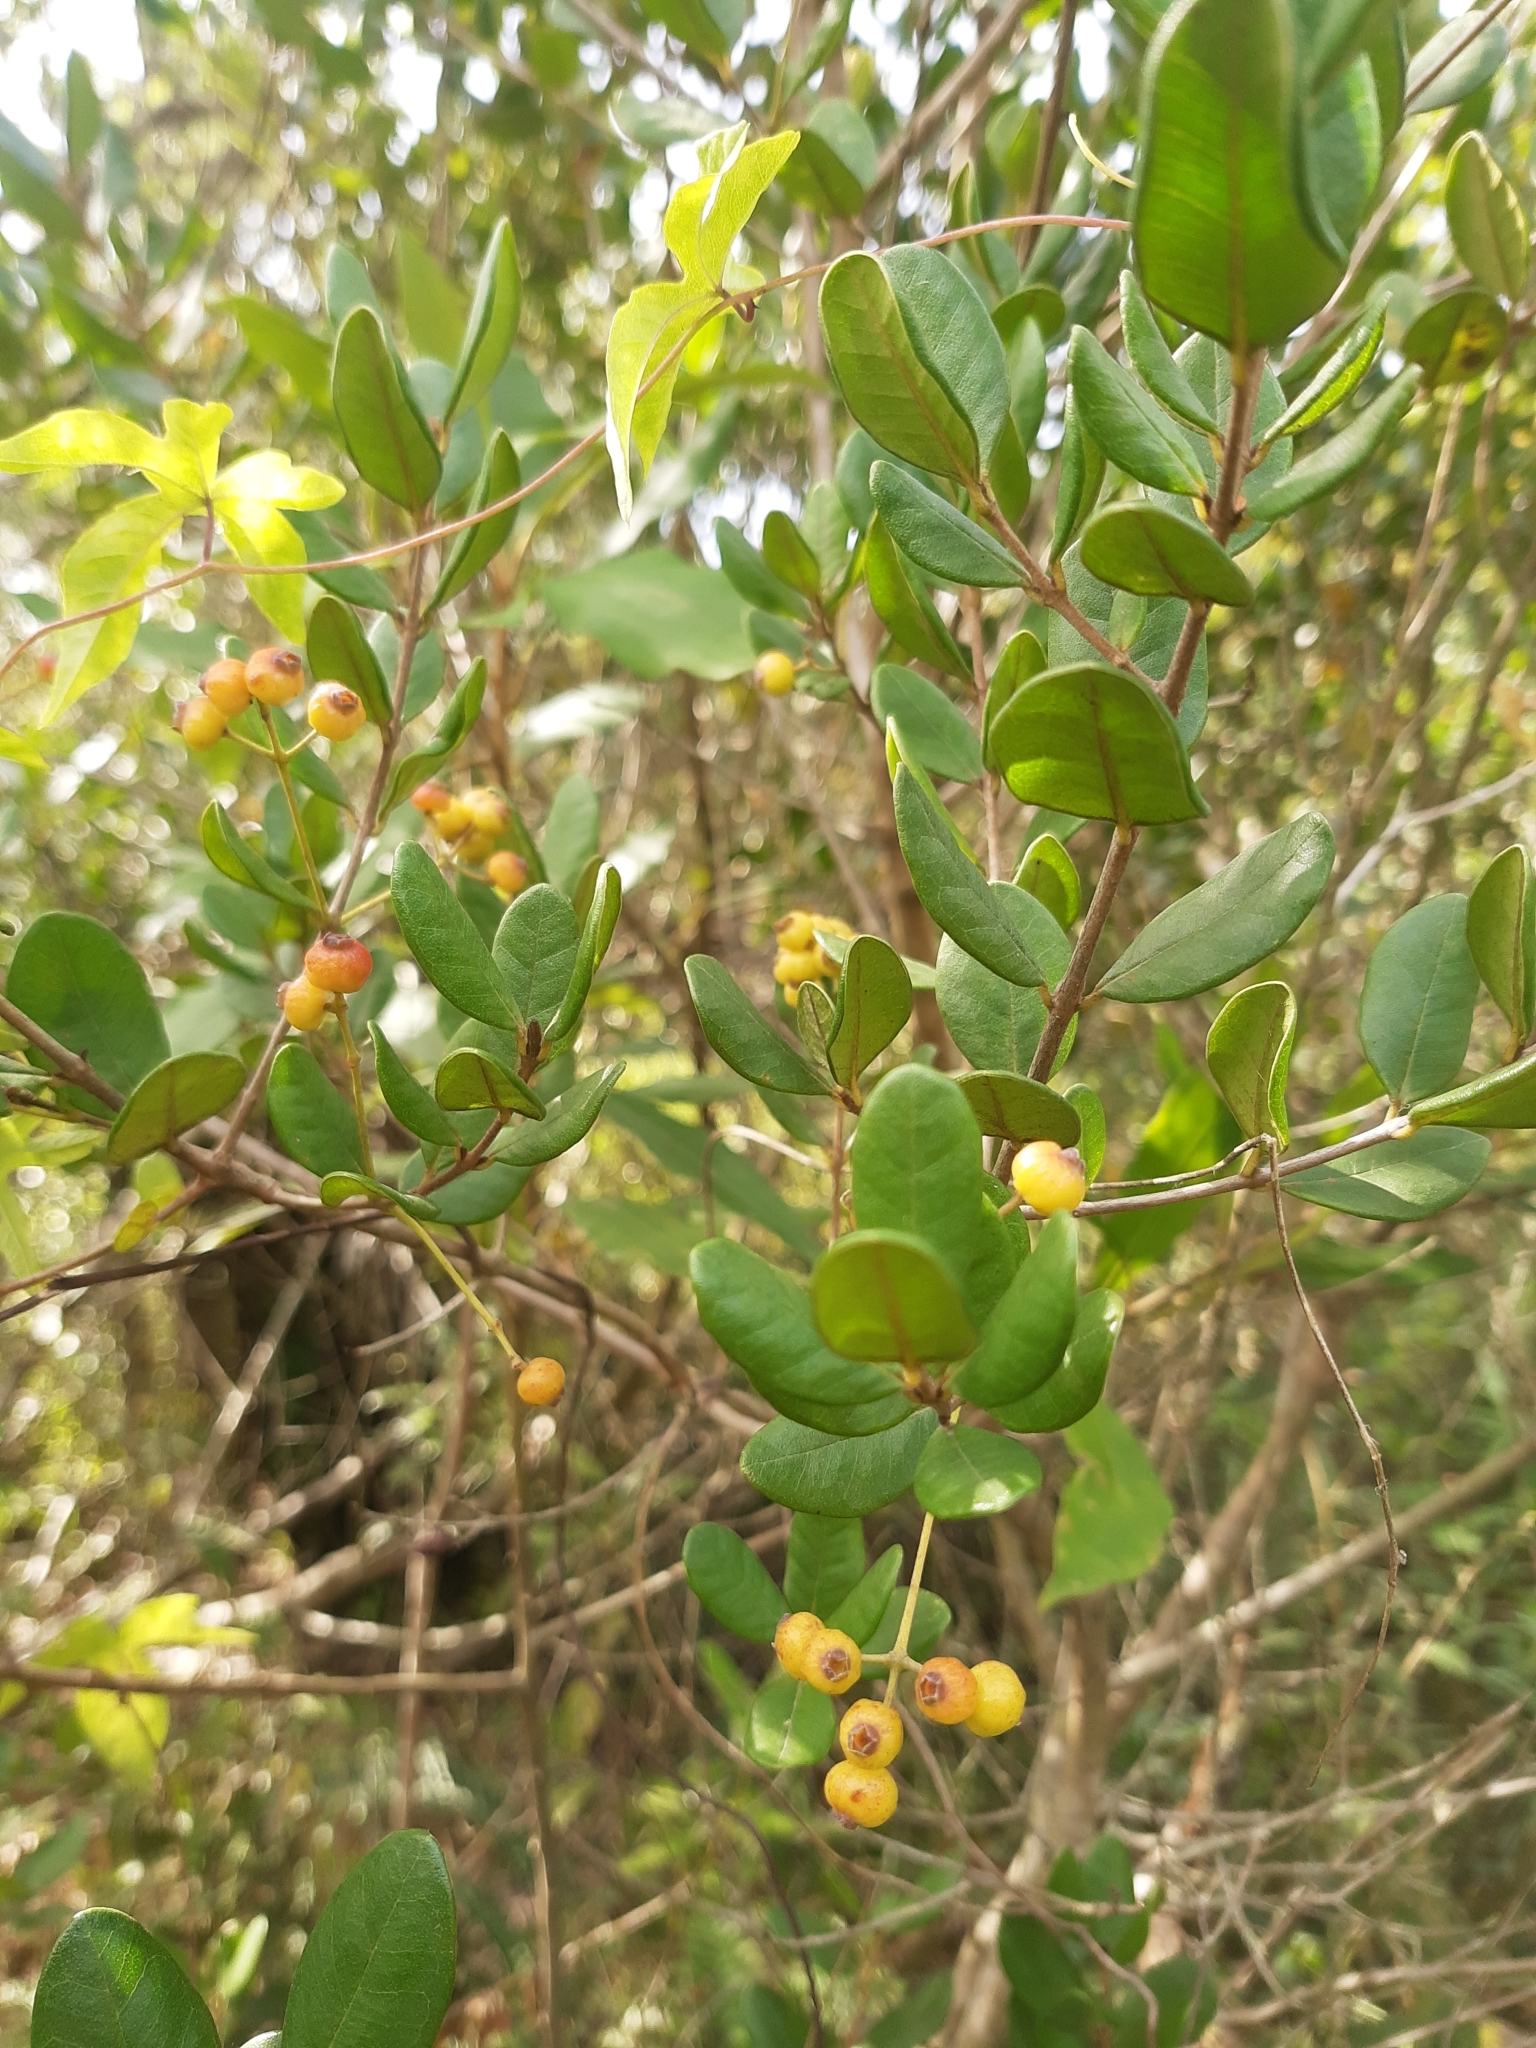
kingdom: Plantae
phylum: Tracheophyta
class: Magnoliopsida
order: Myrtales
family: Myrtaceae
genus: Myrcia
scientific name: Myrcia palustris
